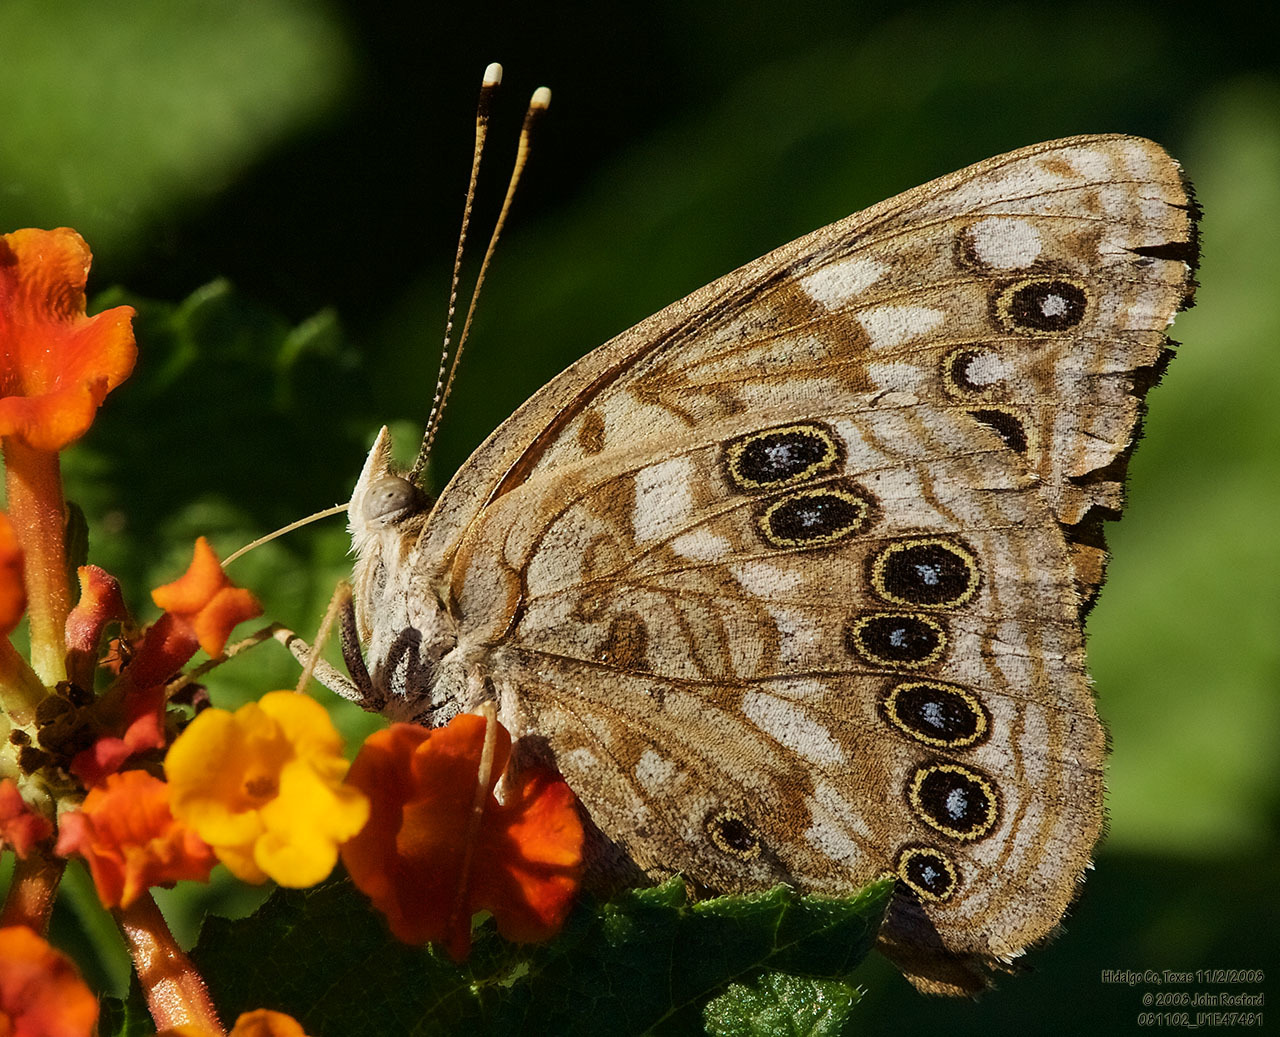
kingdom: Animalia
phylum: Arthropoda
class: Insecta
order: Lepidoptera
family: Nymphalidae
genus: Asterocampa
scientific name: Asterocampa celtis
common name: Hackberry emperor
